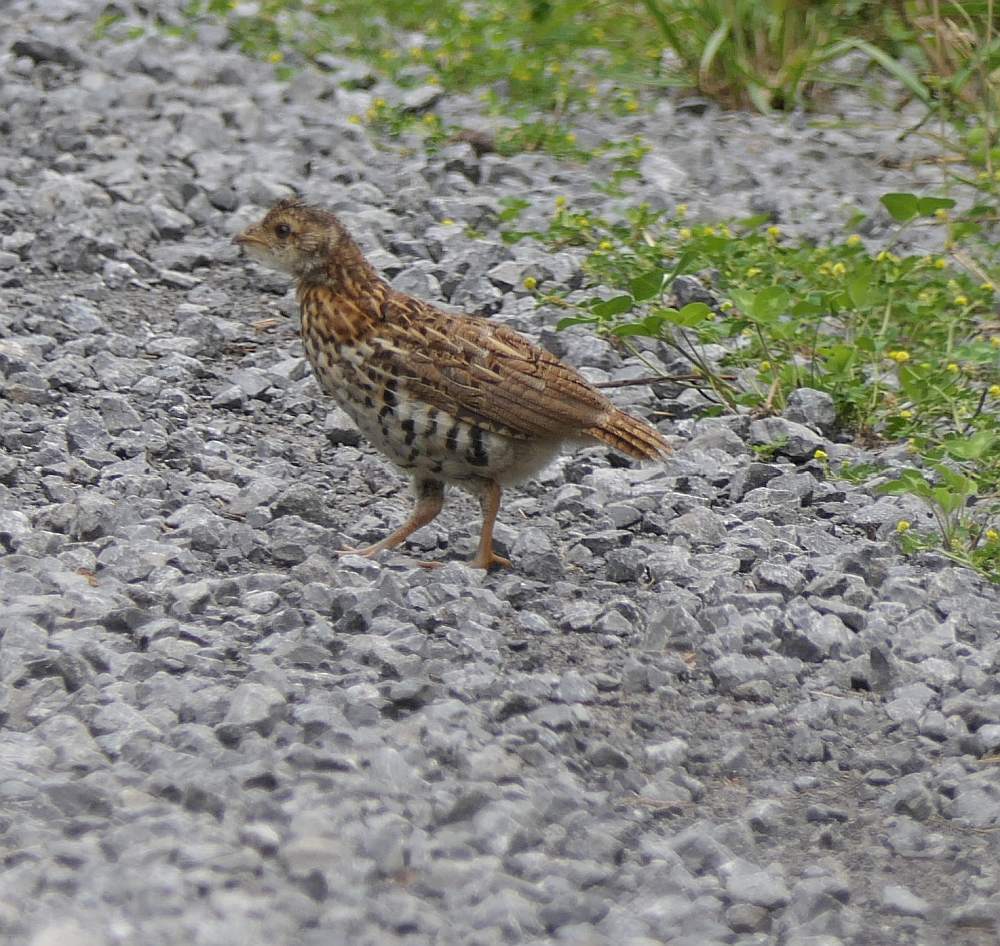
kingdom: Animalia
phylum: Chordata
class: Aves
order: Galliformes
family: Phasianidae
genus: Bonasa
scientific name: Bonasa umbellus
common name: Ruffed grouse
